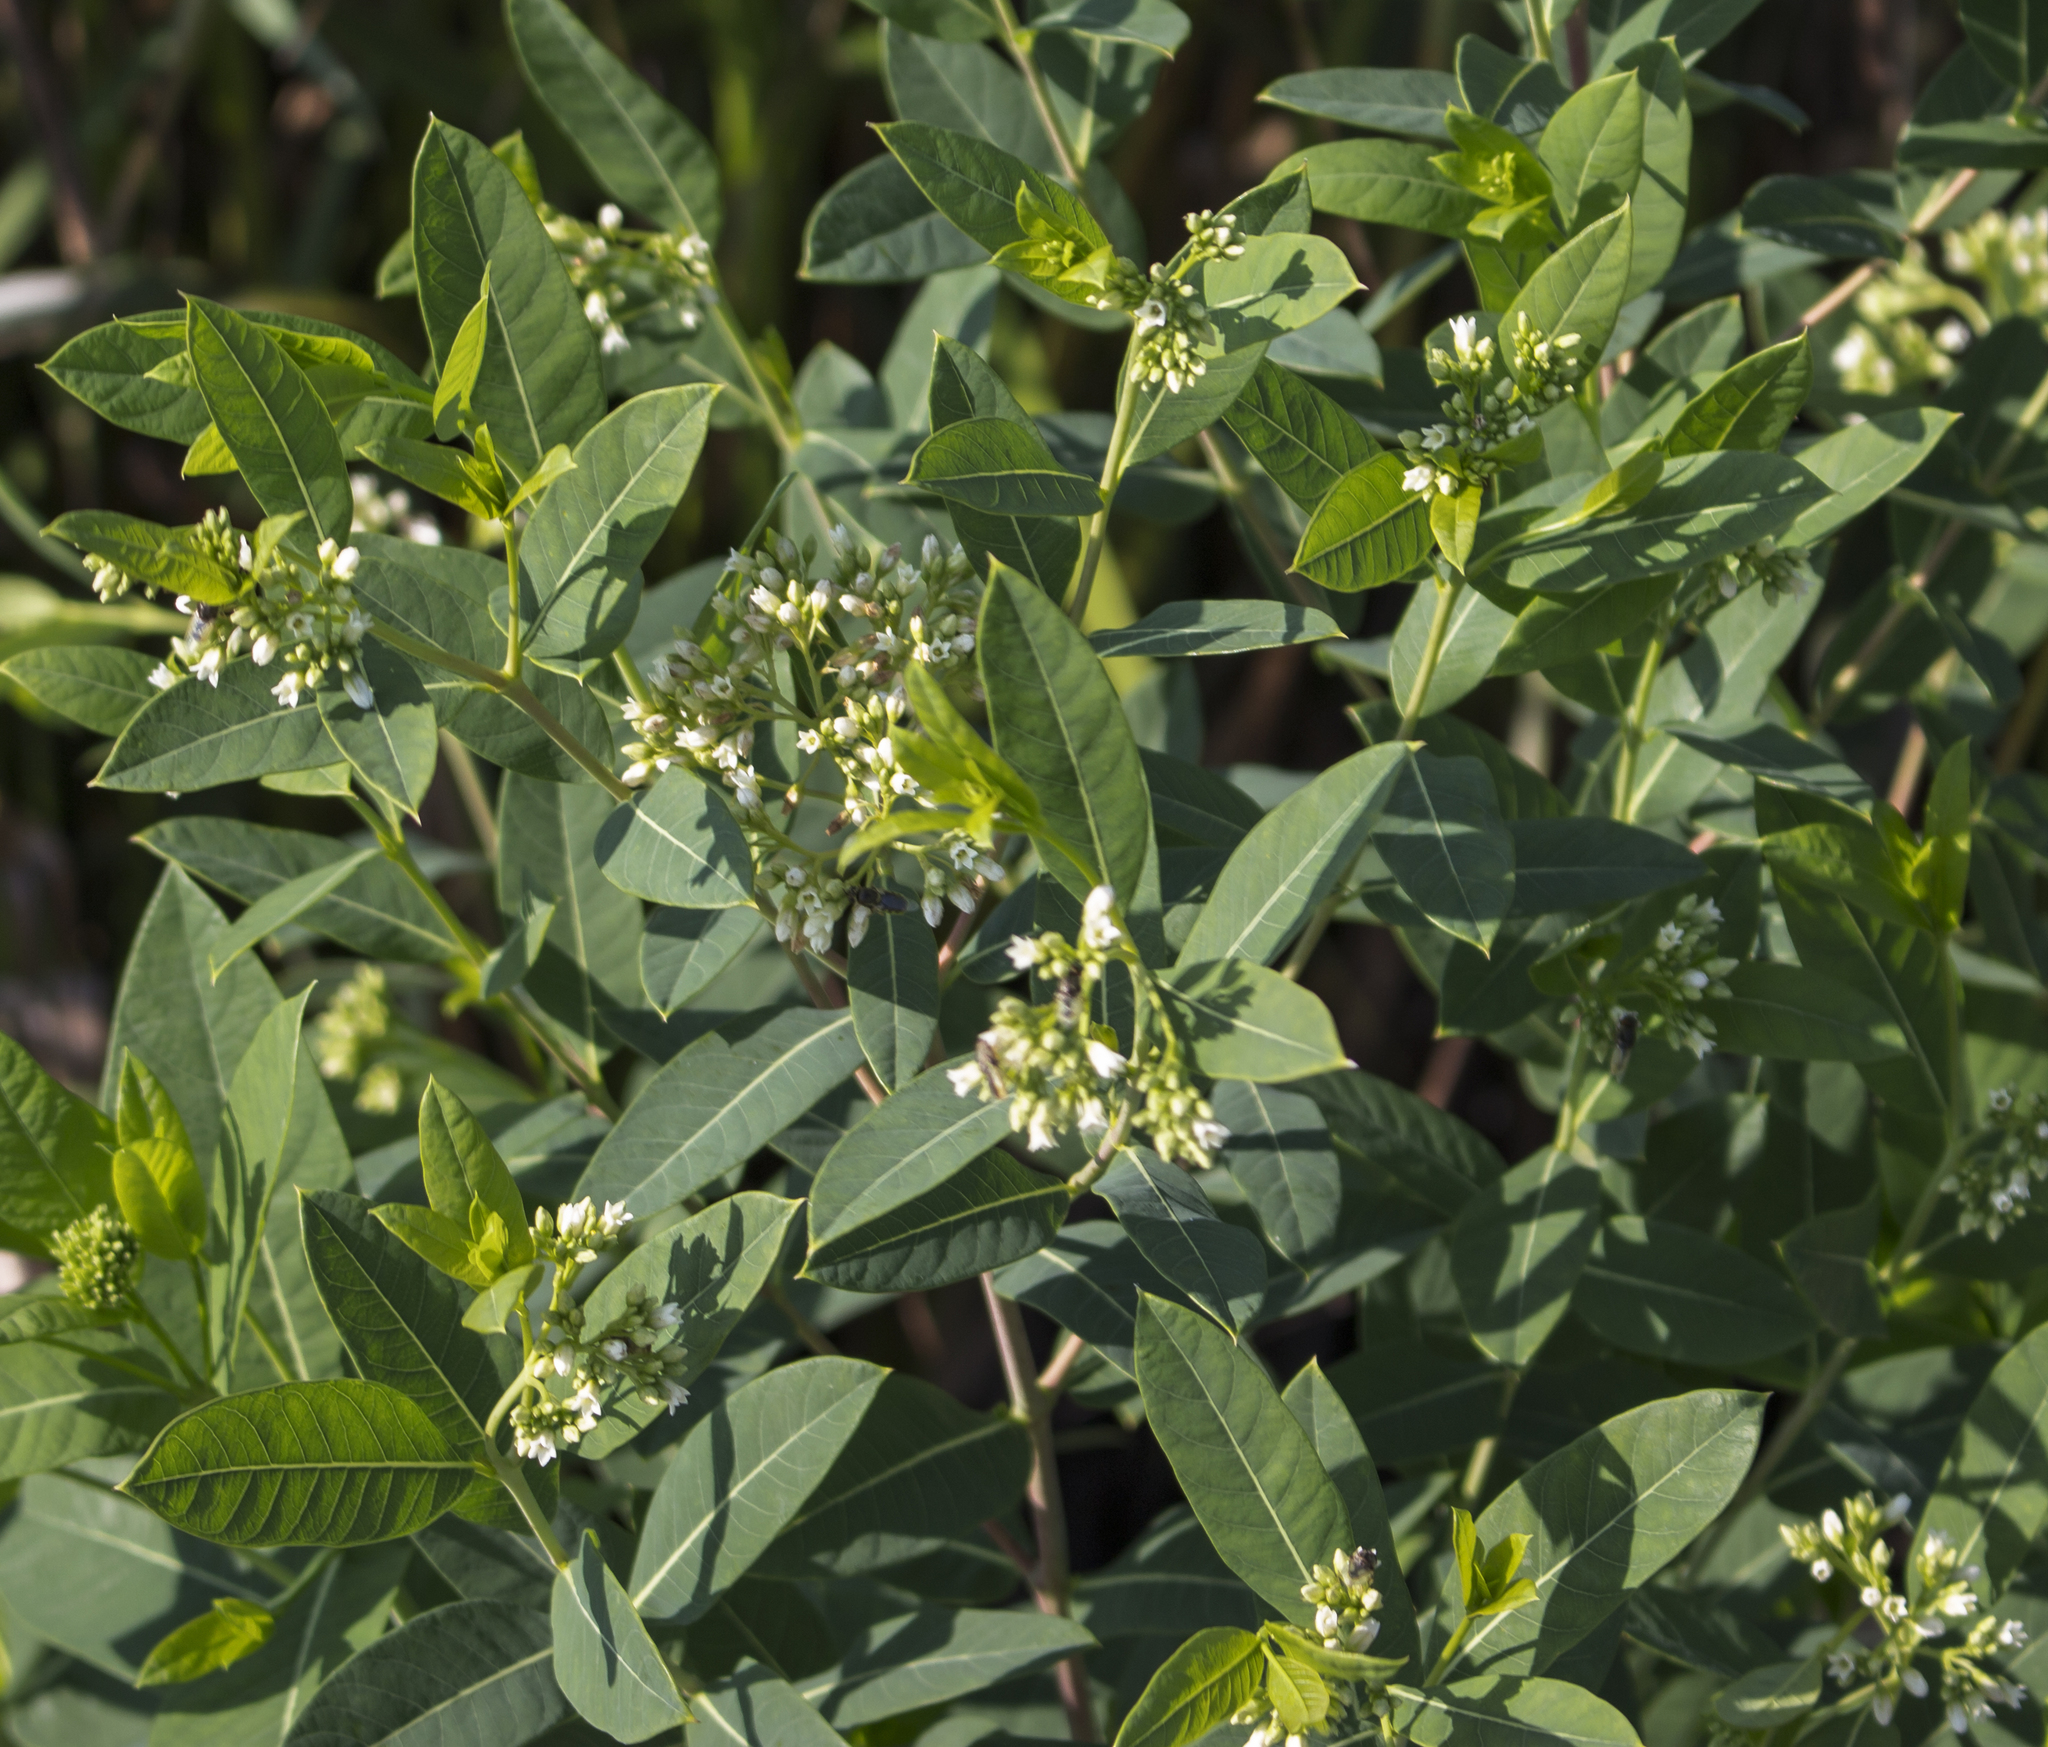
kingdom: Plantae
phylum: Tracheophyta
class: Magnoliopsida
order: Gentianales
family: Apocynaceae
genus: Apocynum
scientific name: Apocynum cannabinum
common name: Hemp dogbane
